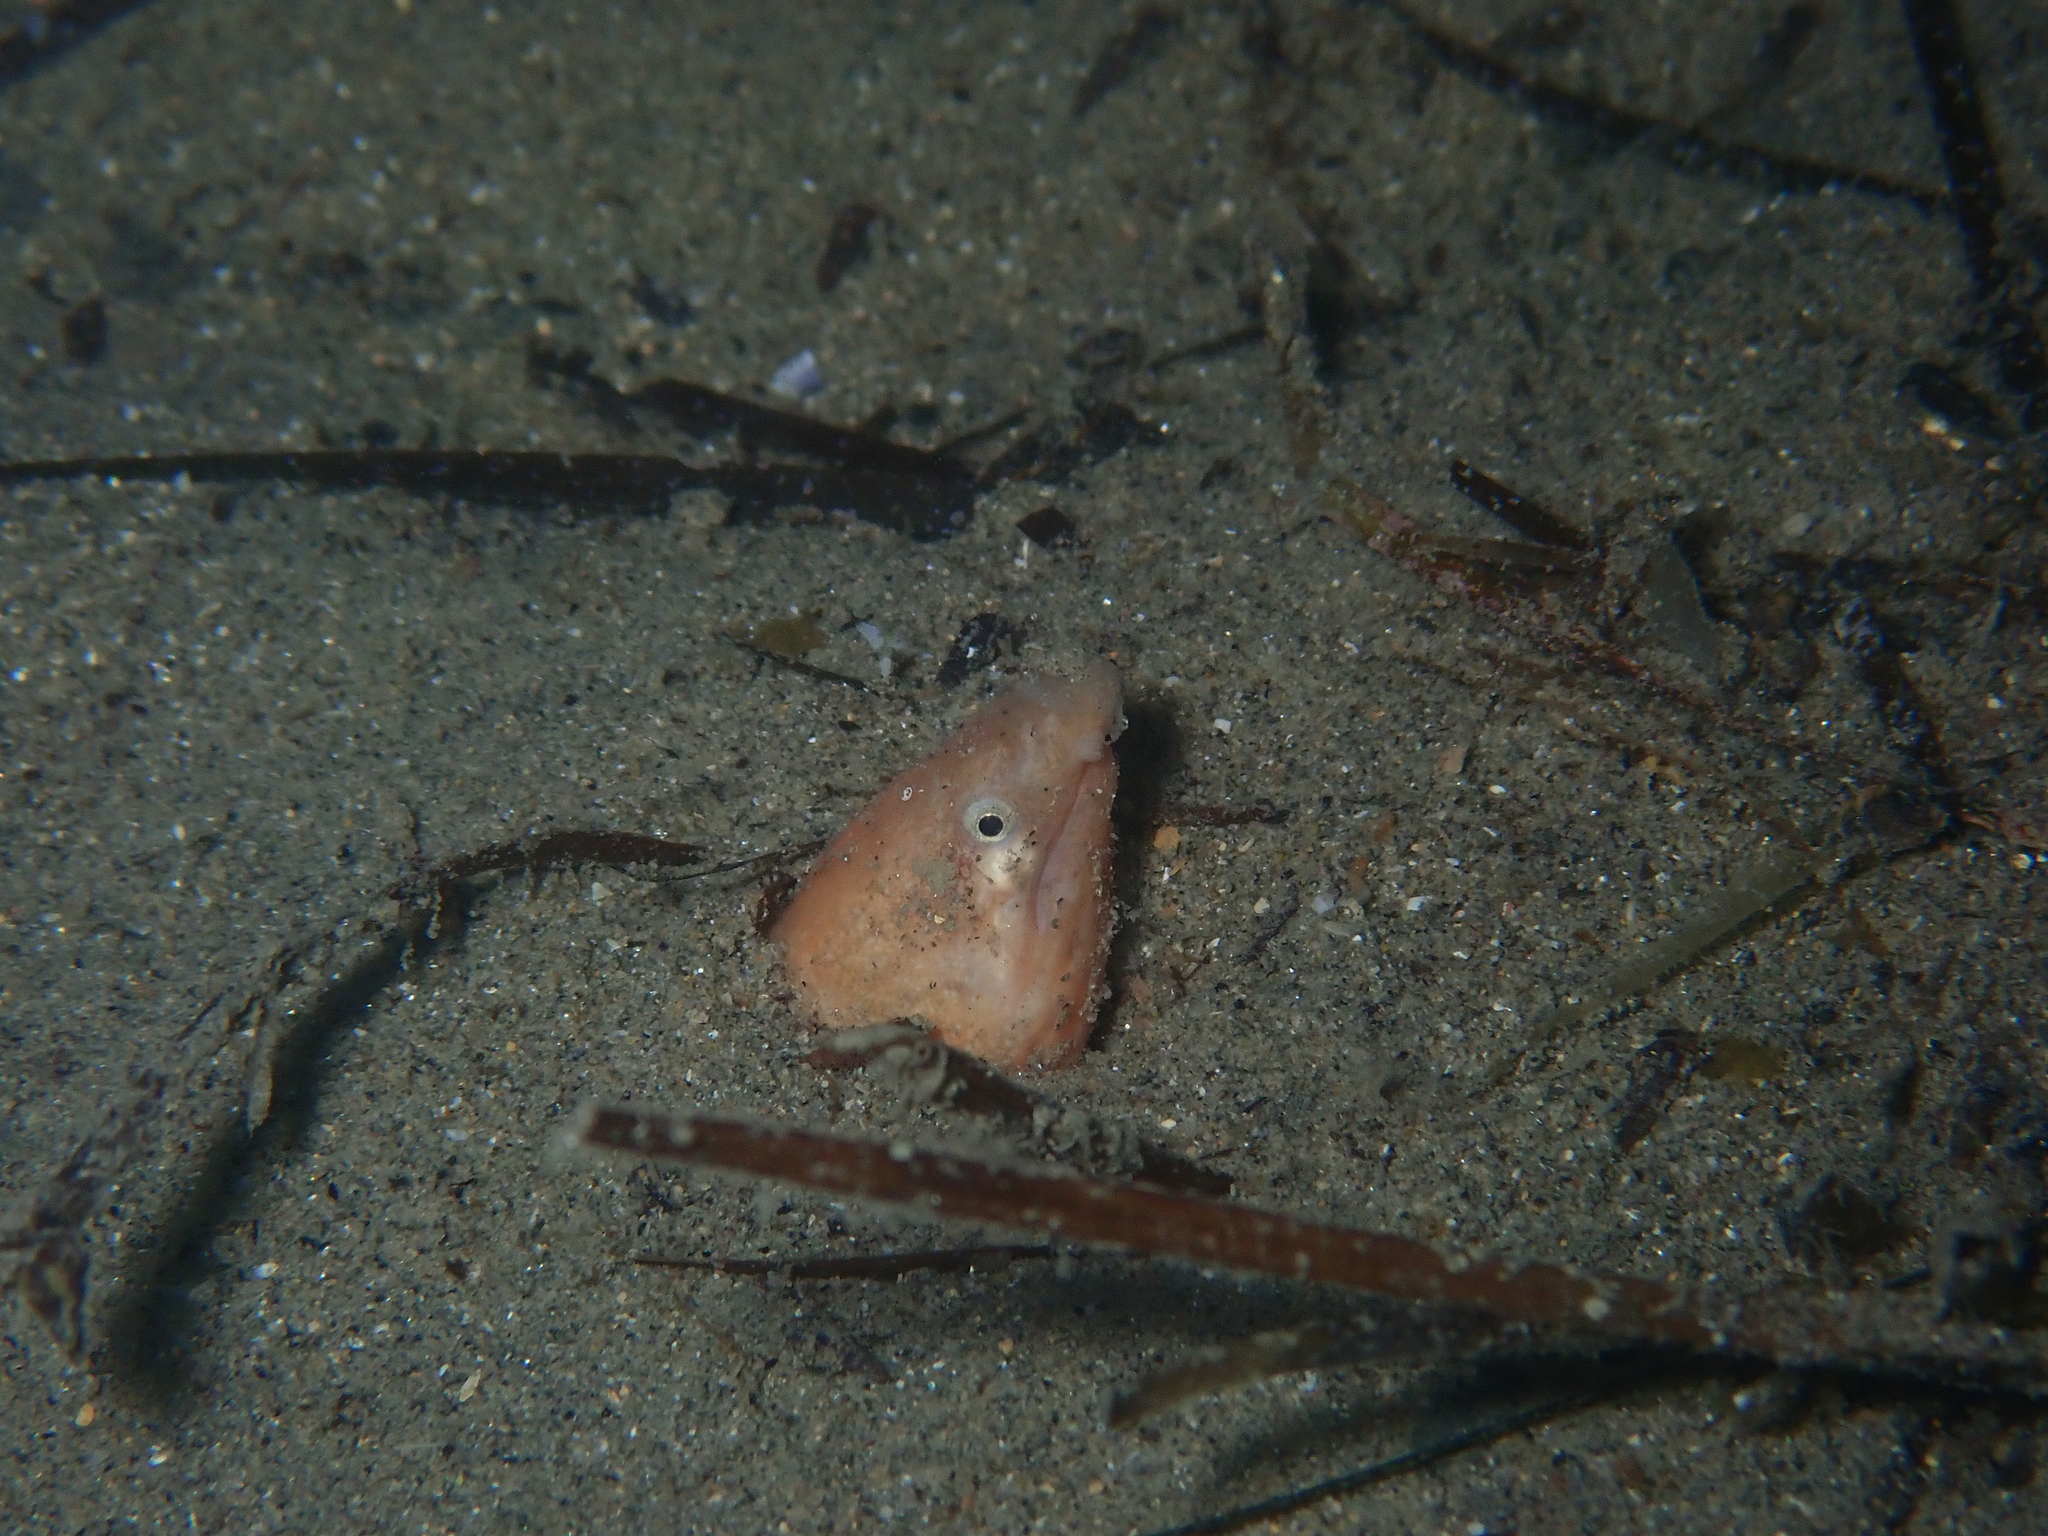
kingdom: Animalia
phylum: Chordata
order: Anguilliformes
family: Ophichthidae
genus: Dalophis
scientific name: Dalophis imberbis
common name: Armless snake eel
